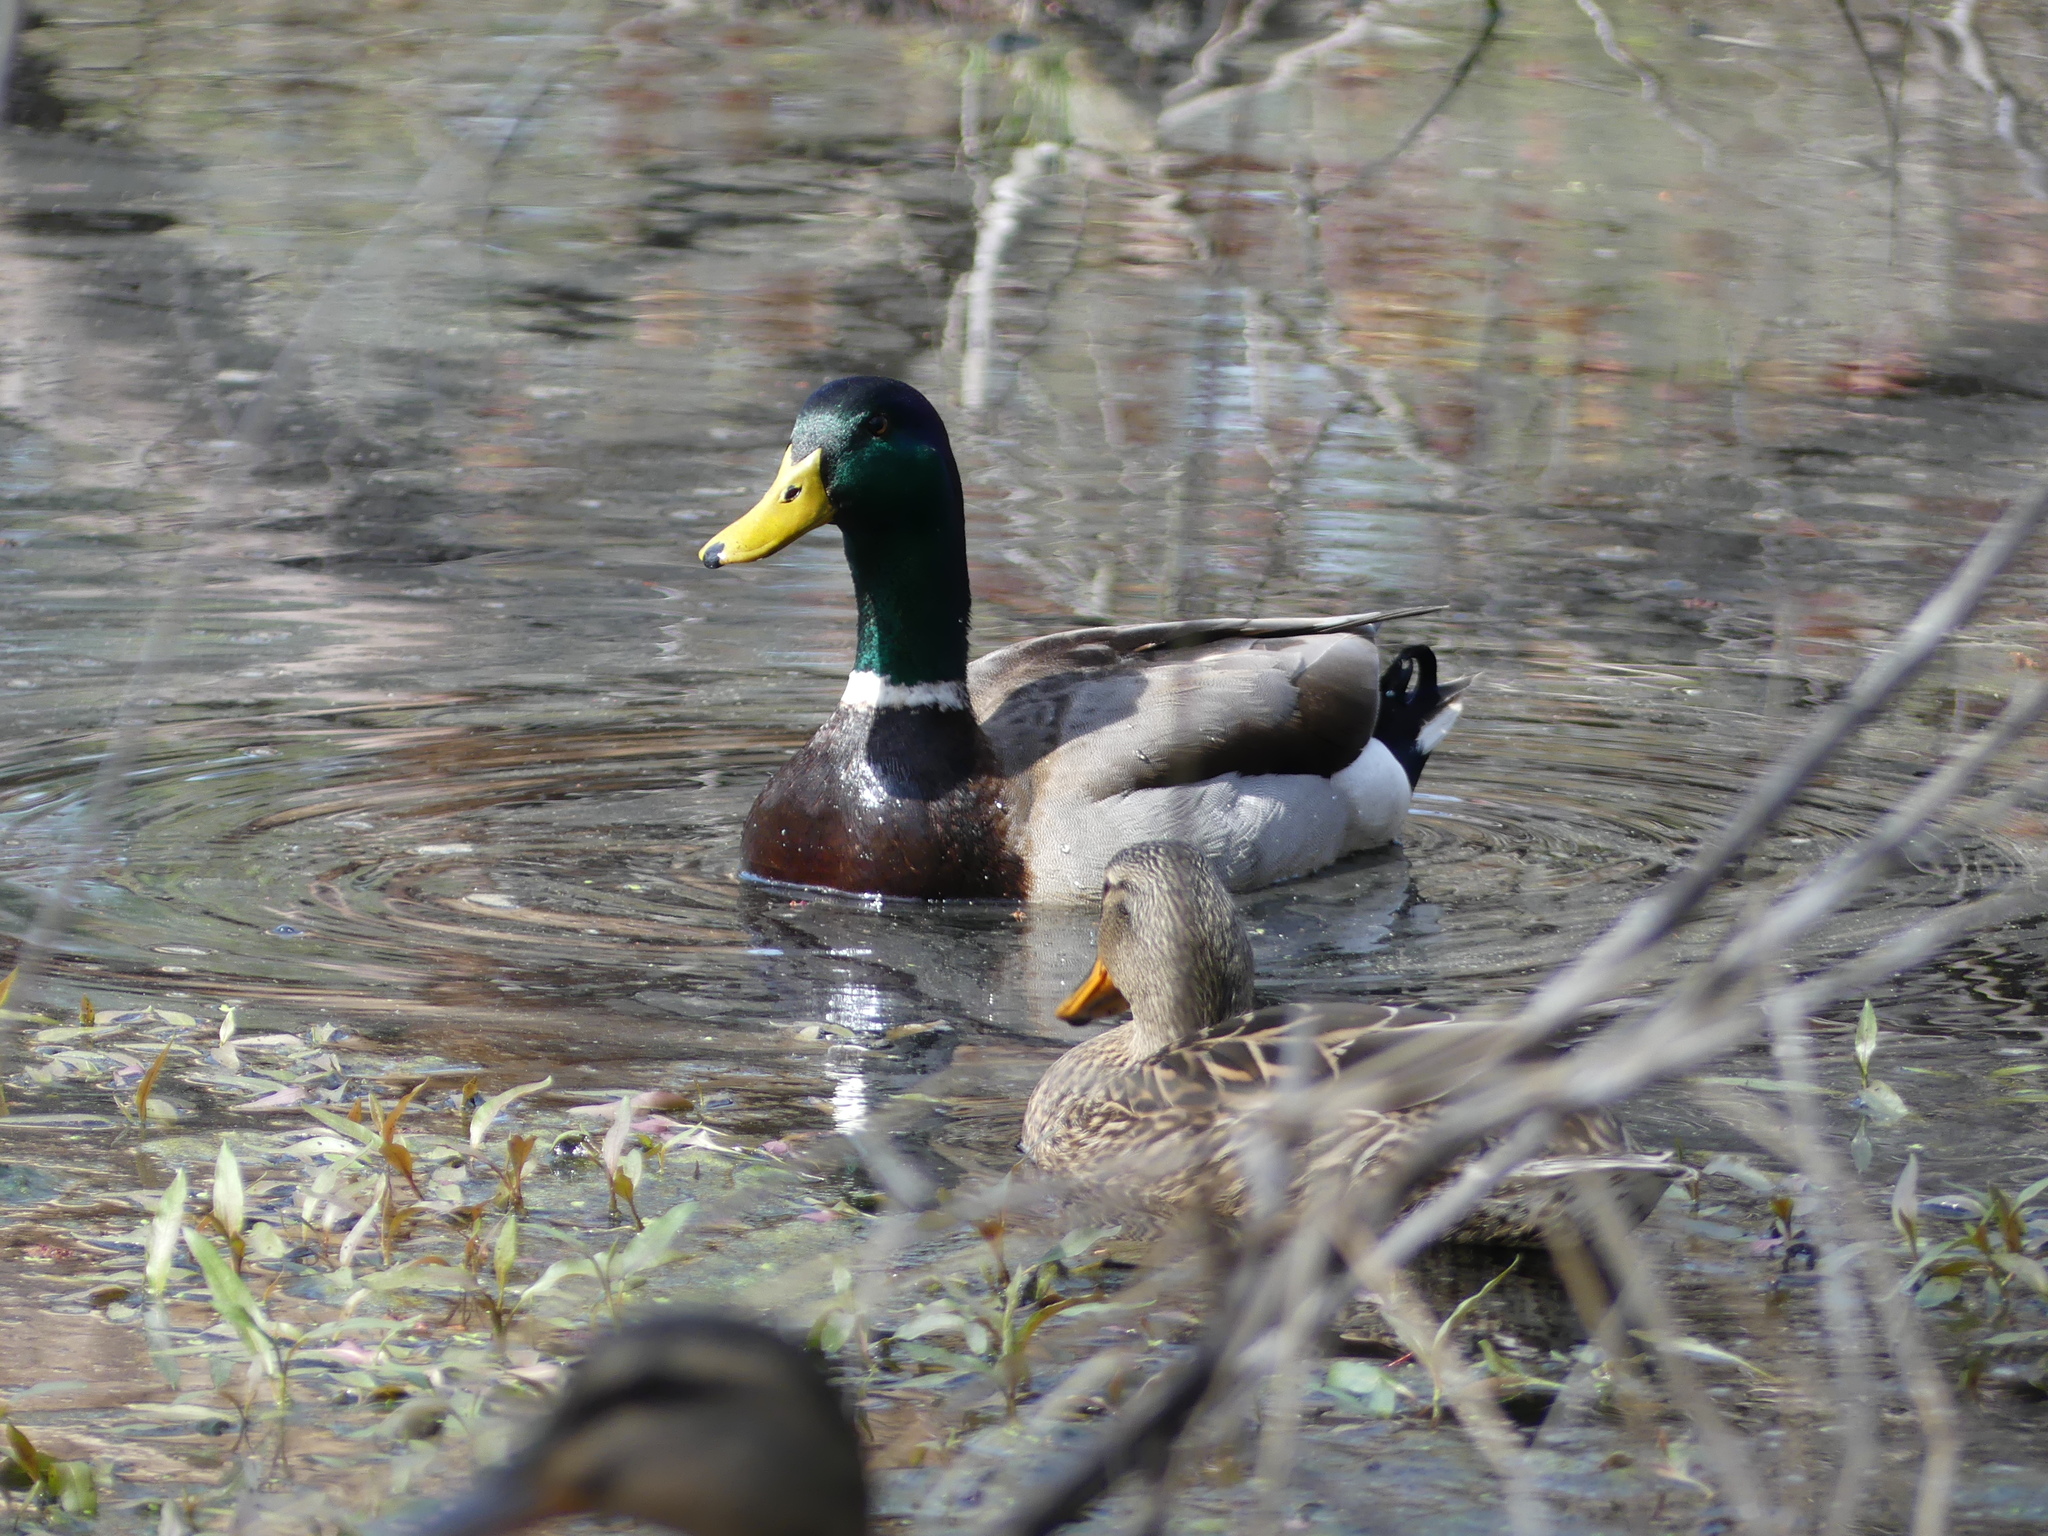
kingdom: Animalia
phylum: Chordata
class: Aves
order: Anseriformes
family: Anatidae
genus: Anas
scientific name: Anas platyrhynchos
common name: Mallard
